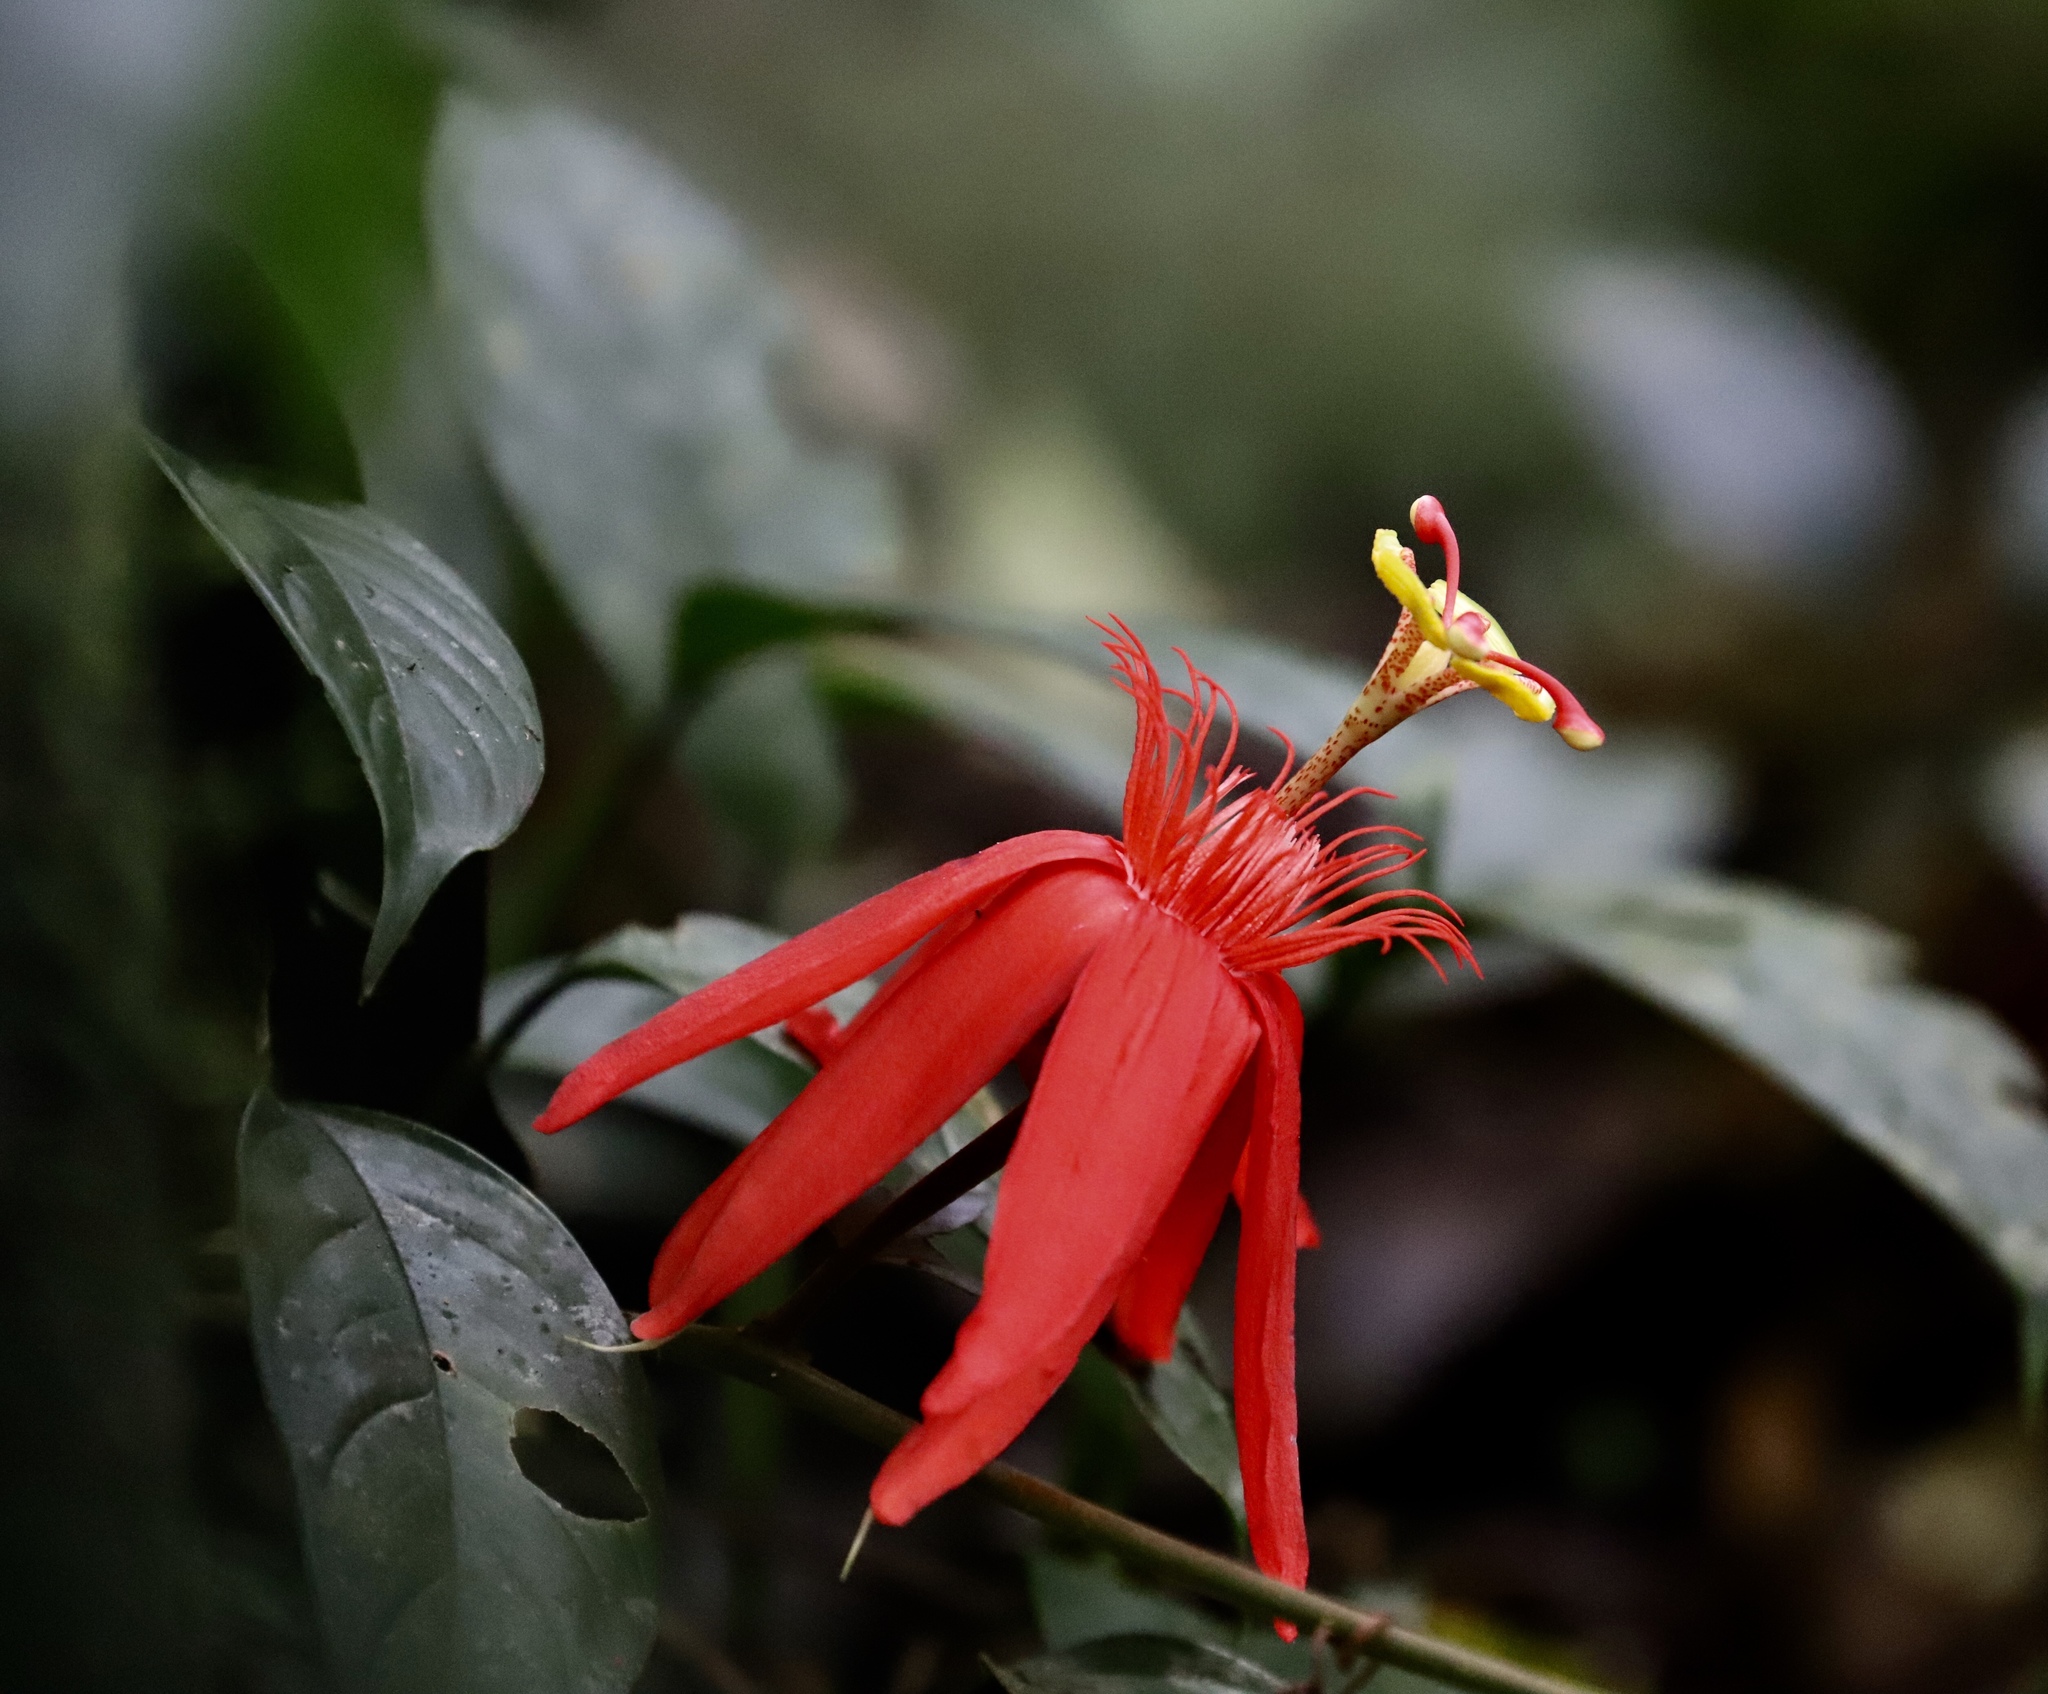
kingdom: Plantae
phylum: Tracheophyta
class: Magnoliopsida
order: Malpighiales
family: Passifloraceae
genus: Passiflora
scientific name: Passiflora vitifolia
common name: Perfumed passionflower
